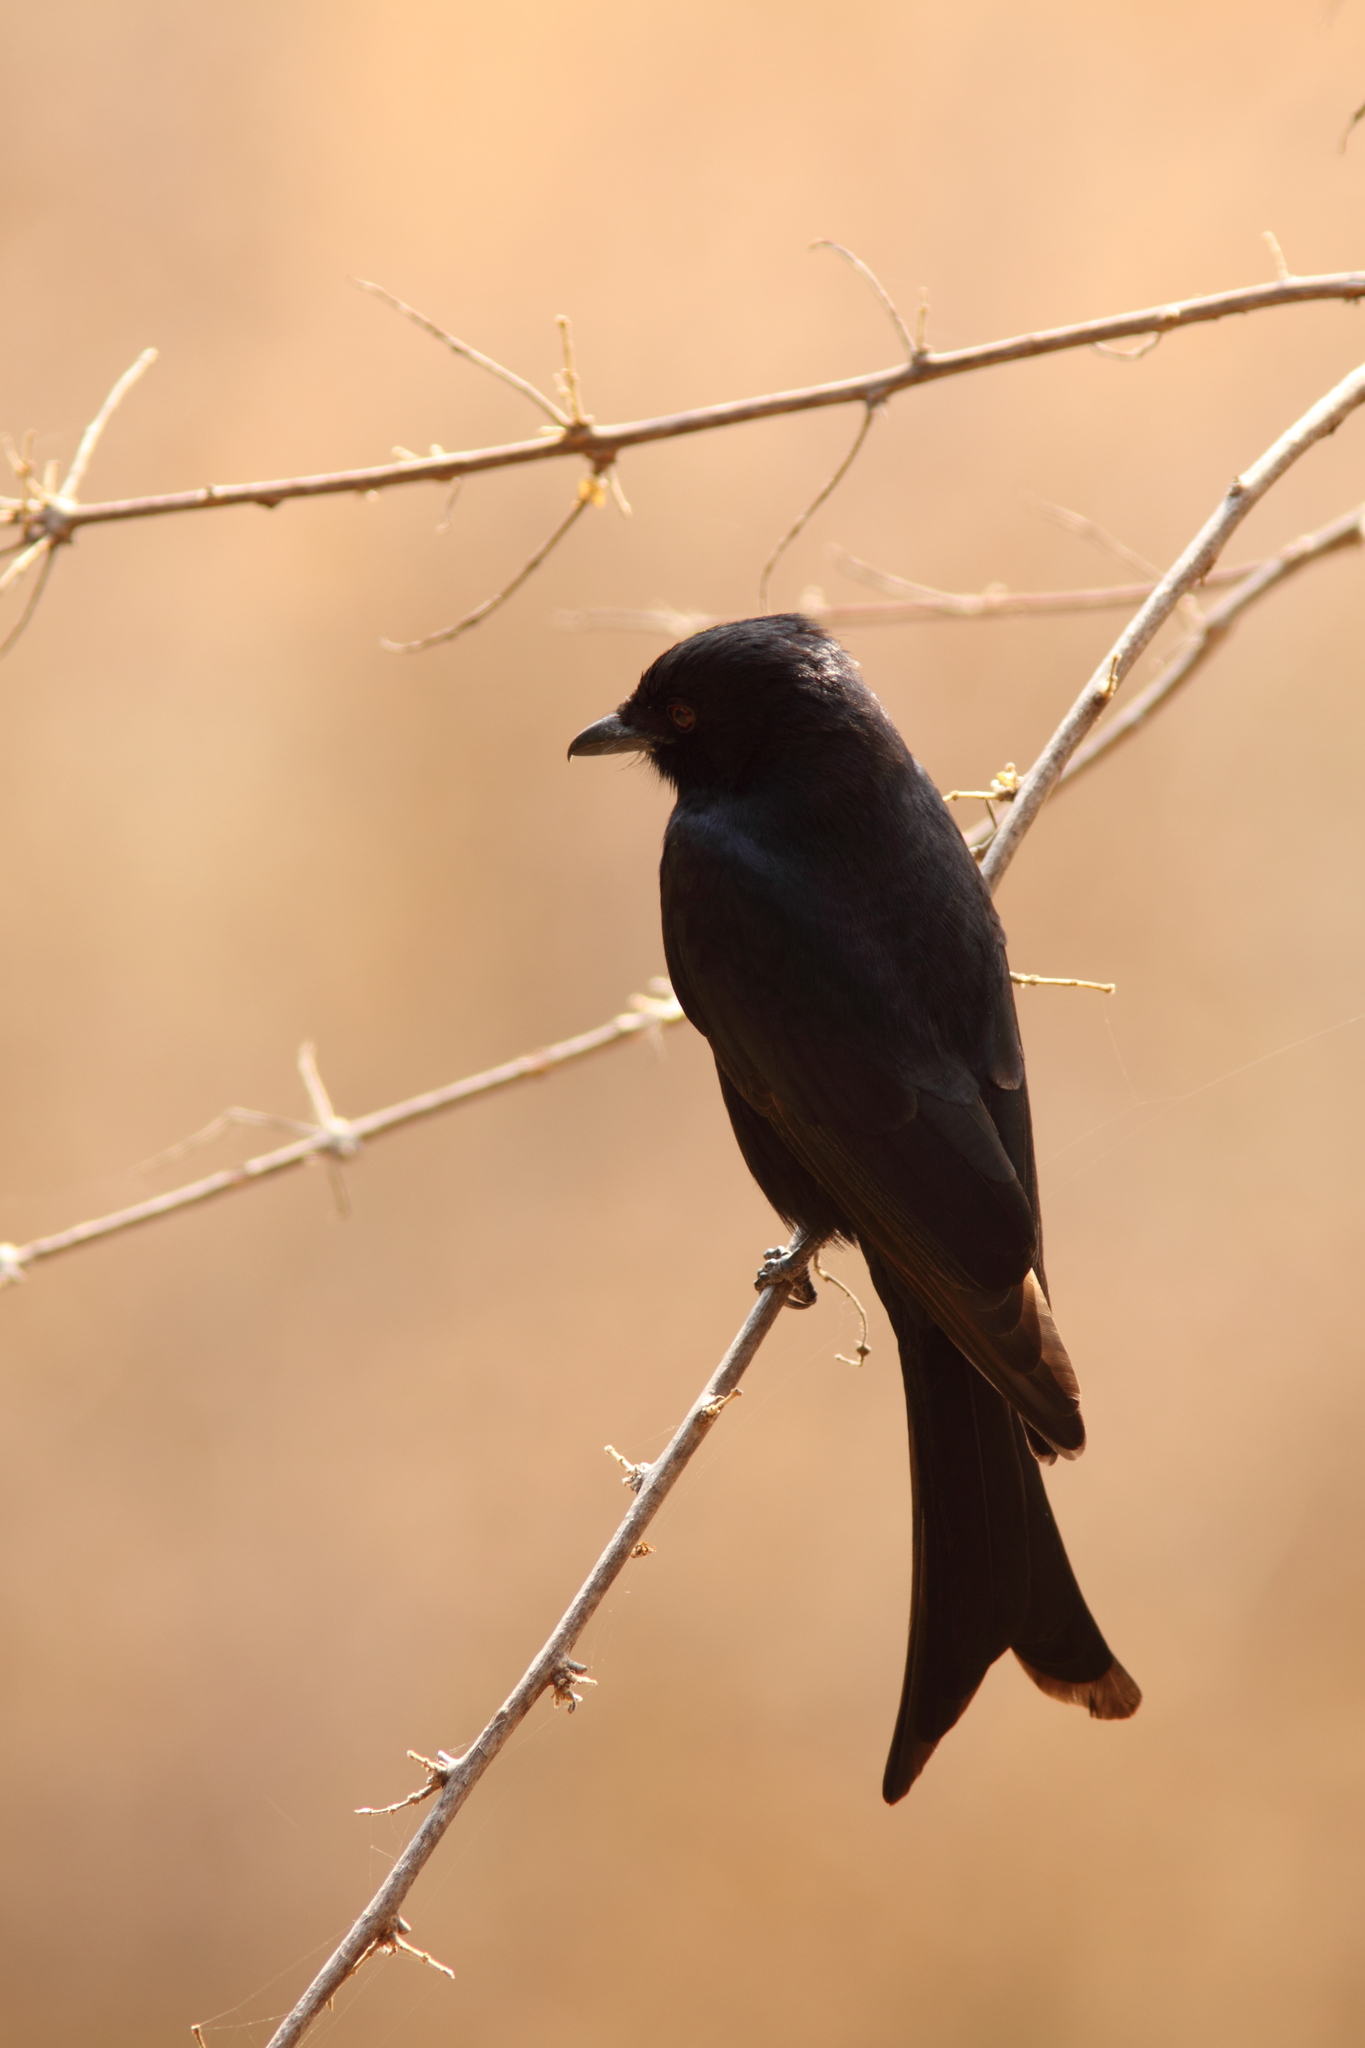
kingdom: Animalia
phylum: Chordata
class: Aves
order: Passeriformes
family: Dicruridae
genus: Dicrurus
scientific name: Dicrurus adsimilis
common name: Fork-tailed drongo
